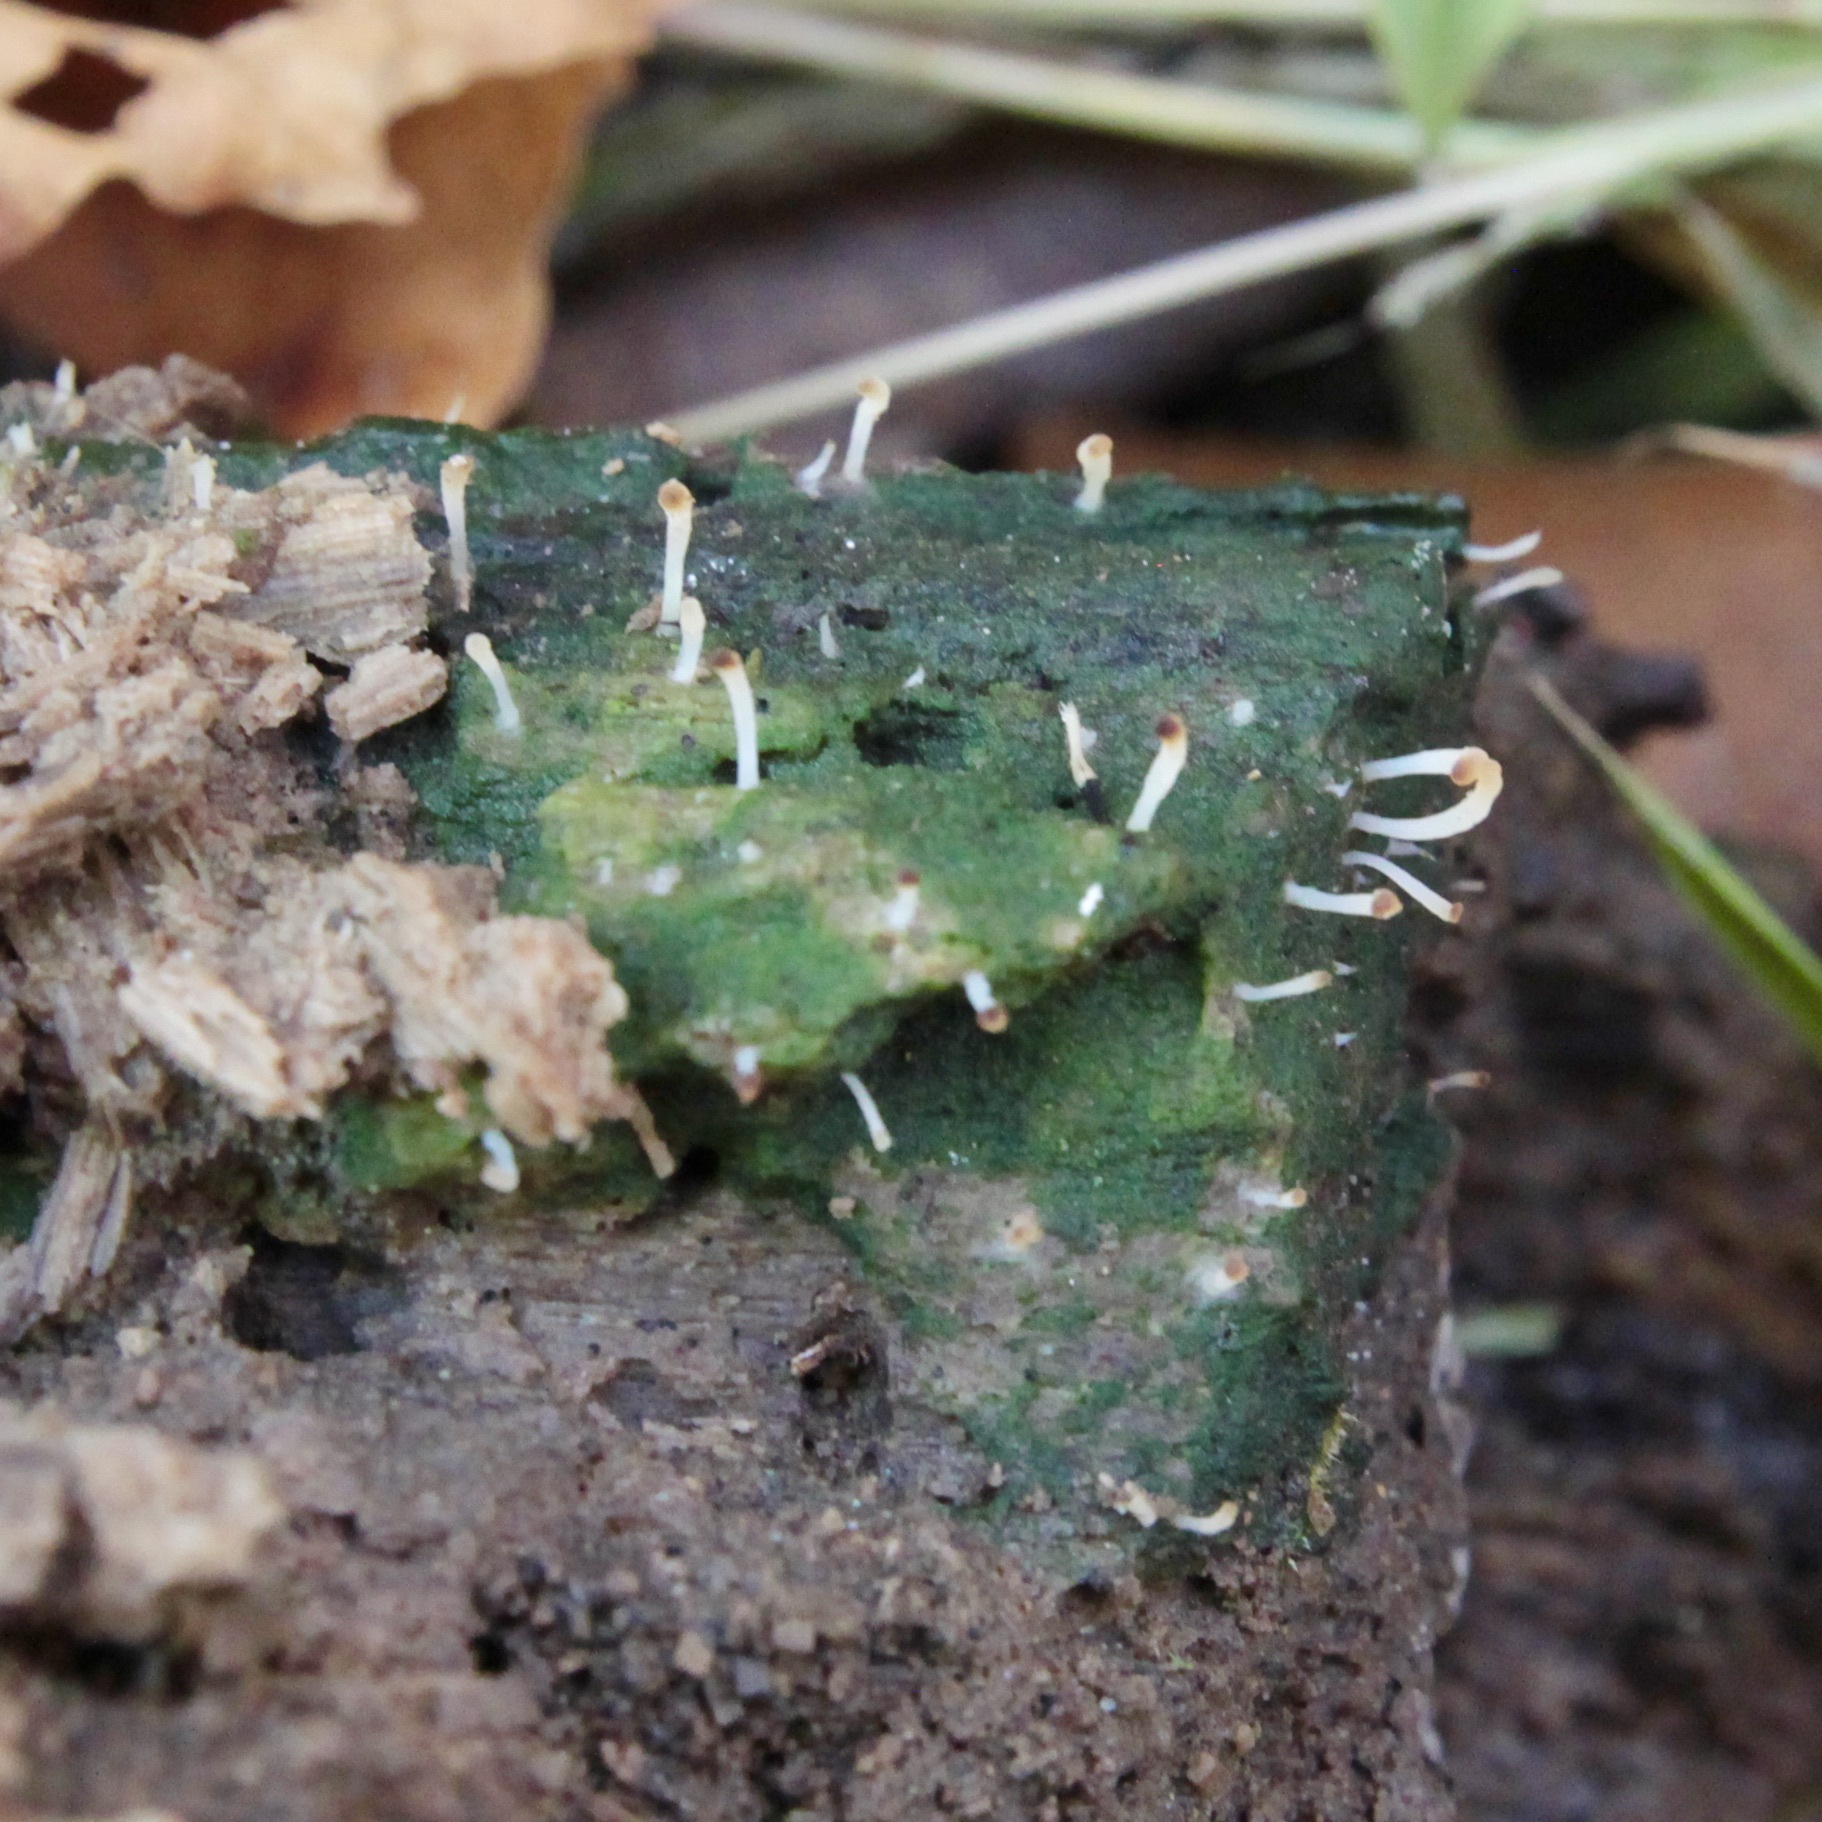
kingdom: Fungi
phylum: Basidiomycota
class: Agaricomycetes
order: Cantharellales
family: Hydnaceae
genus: Multiclavula
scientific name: Multiclavula mucida
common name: White green-algae coral
